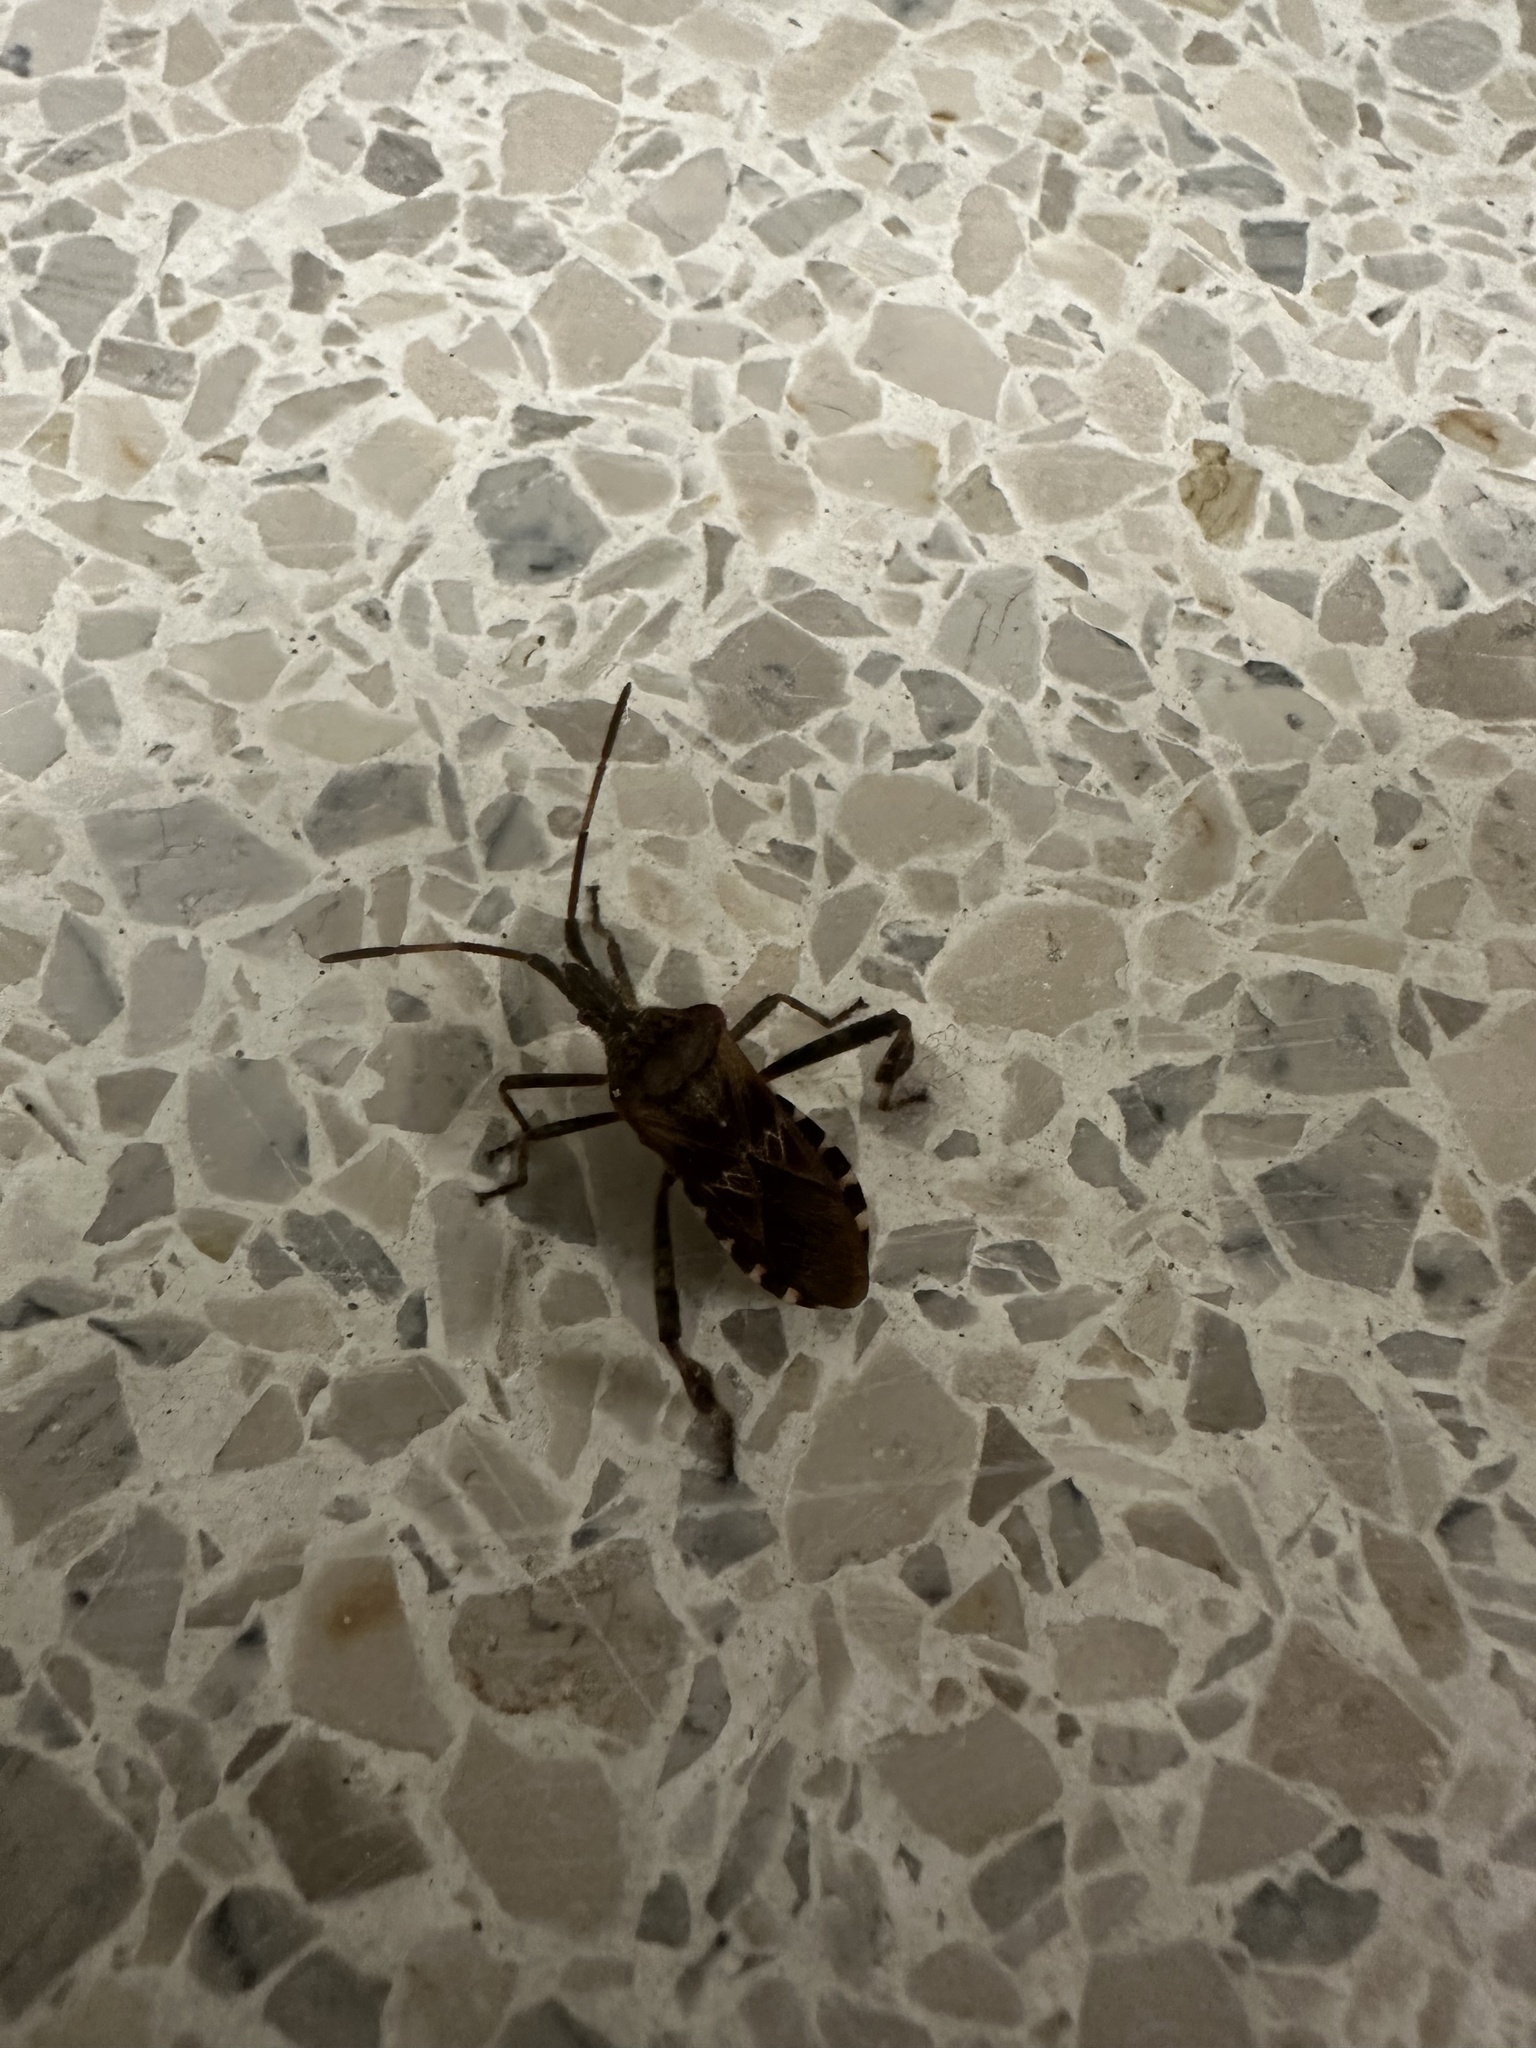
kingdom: Animalia
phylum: Arthropoda
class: Insecta
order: Hemiptera
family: Coreidae
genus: Leptoglossus
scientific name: Leptoglossus occidentalis
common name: Western conifer-seed bug
